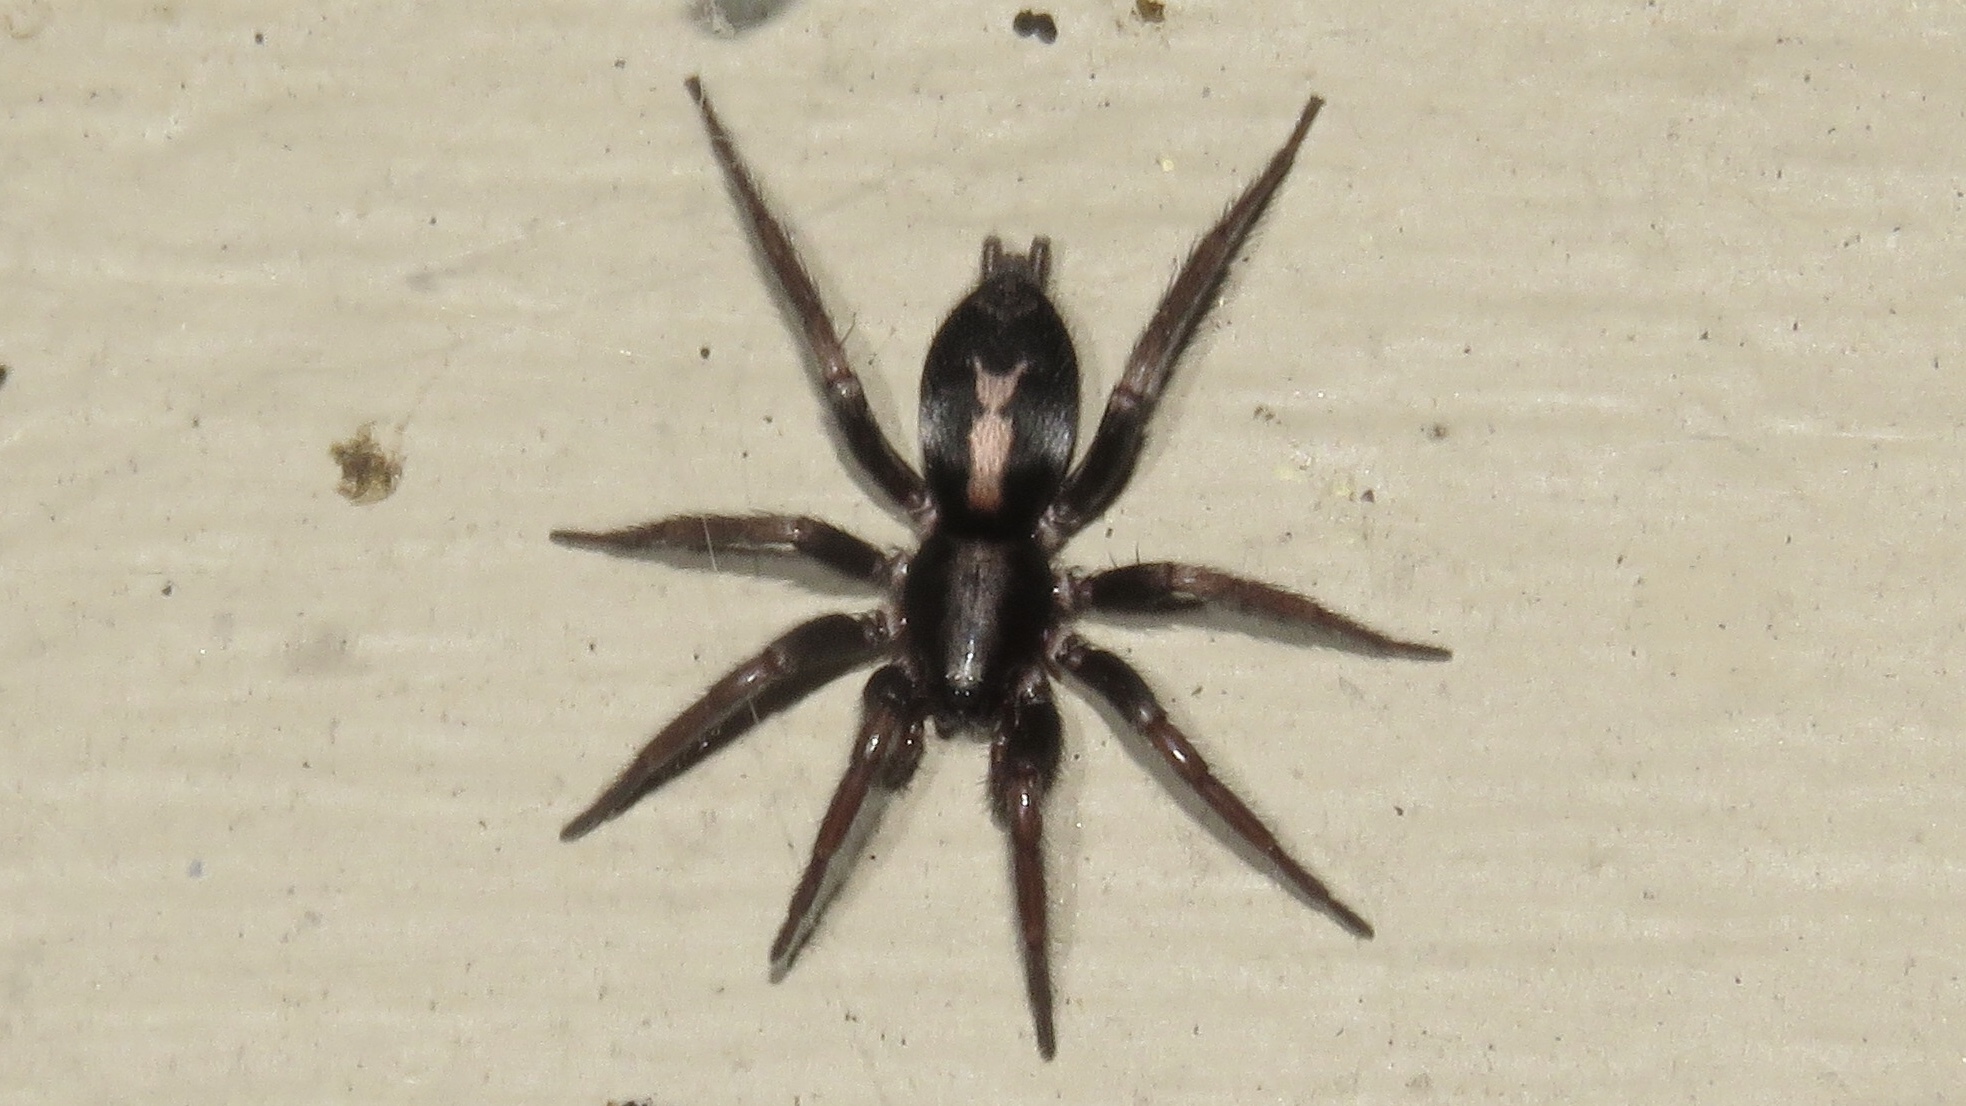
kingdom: Animalia
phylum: Arthropoda
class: Arachnida
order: Araneae
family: Gnaphosidae
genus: Herpyllus
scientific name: Herpyllus ecclesiasticus
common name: Eastern parson spider
